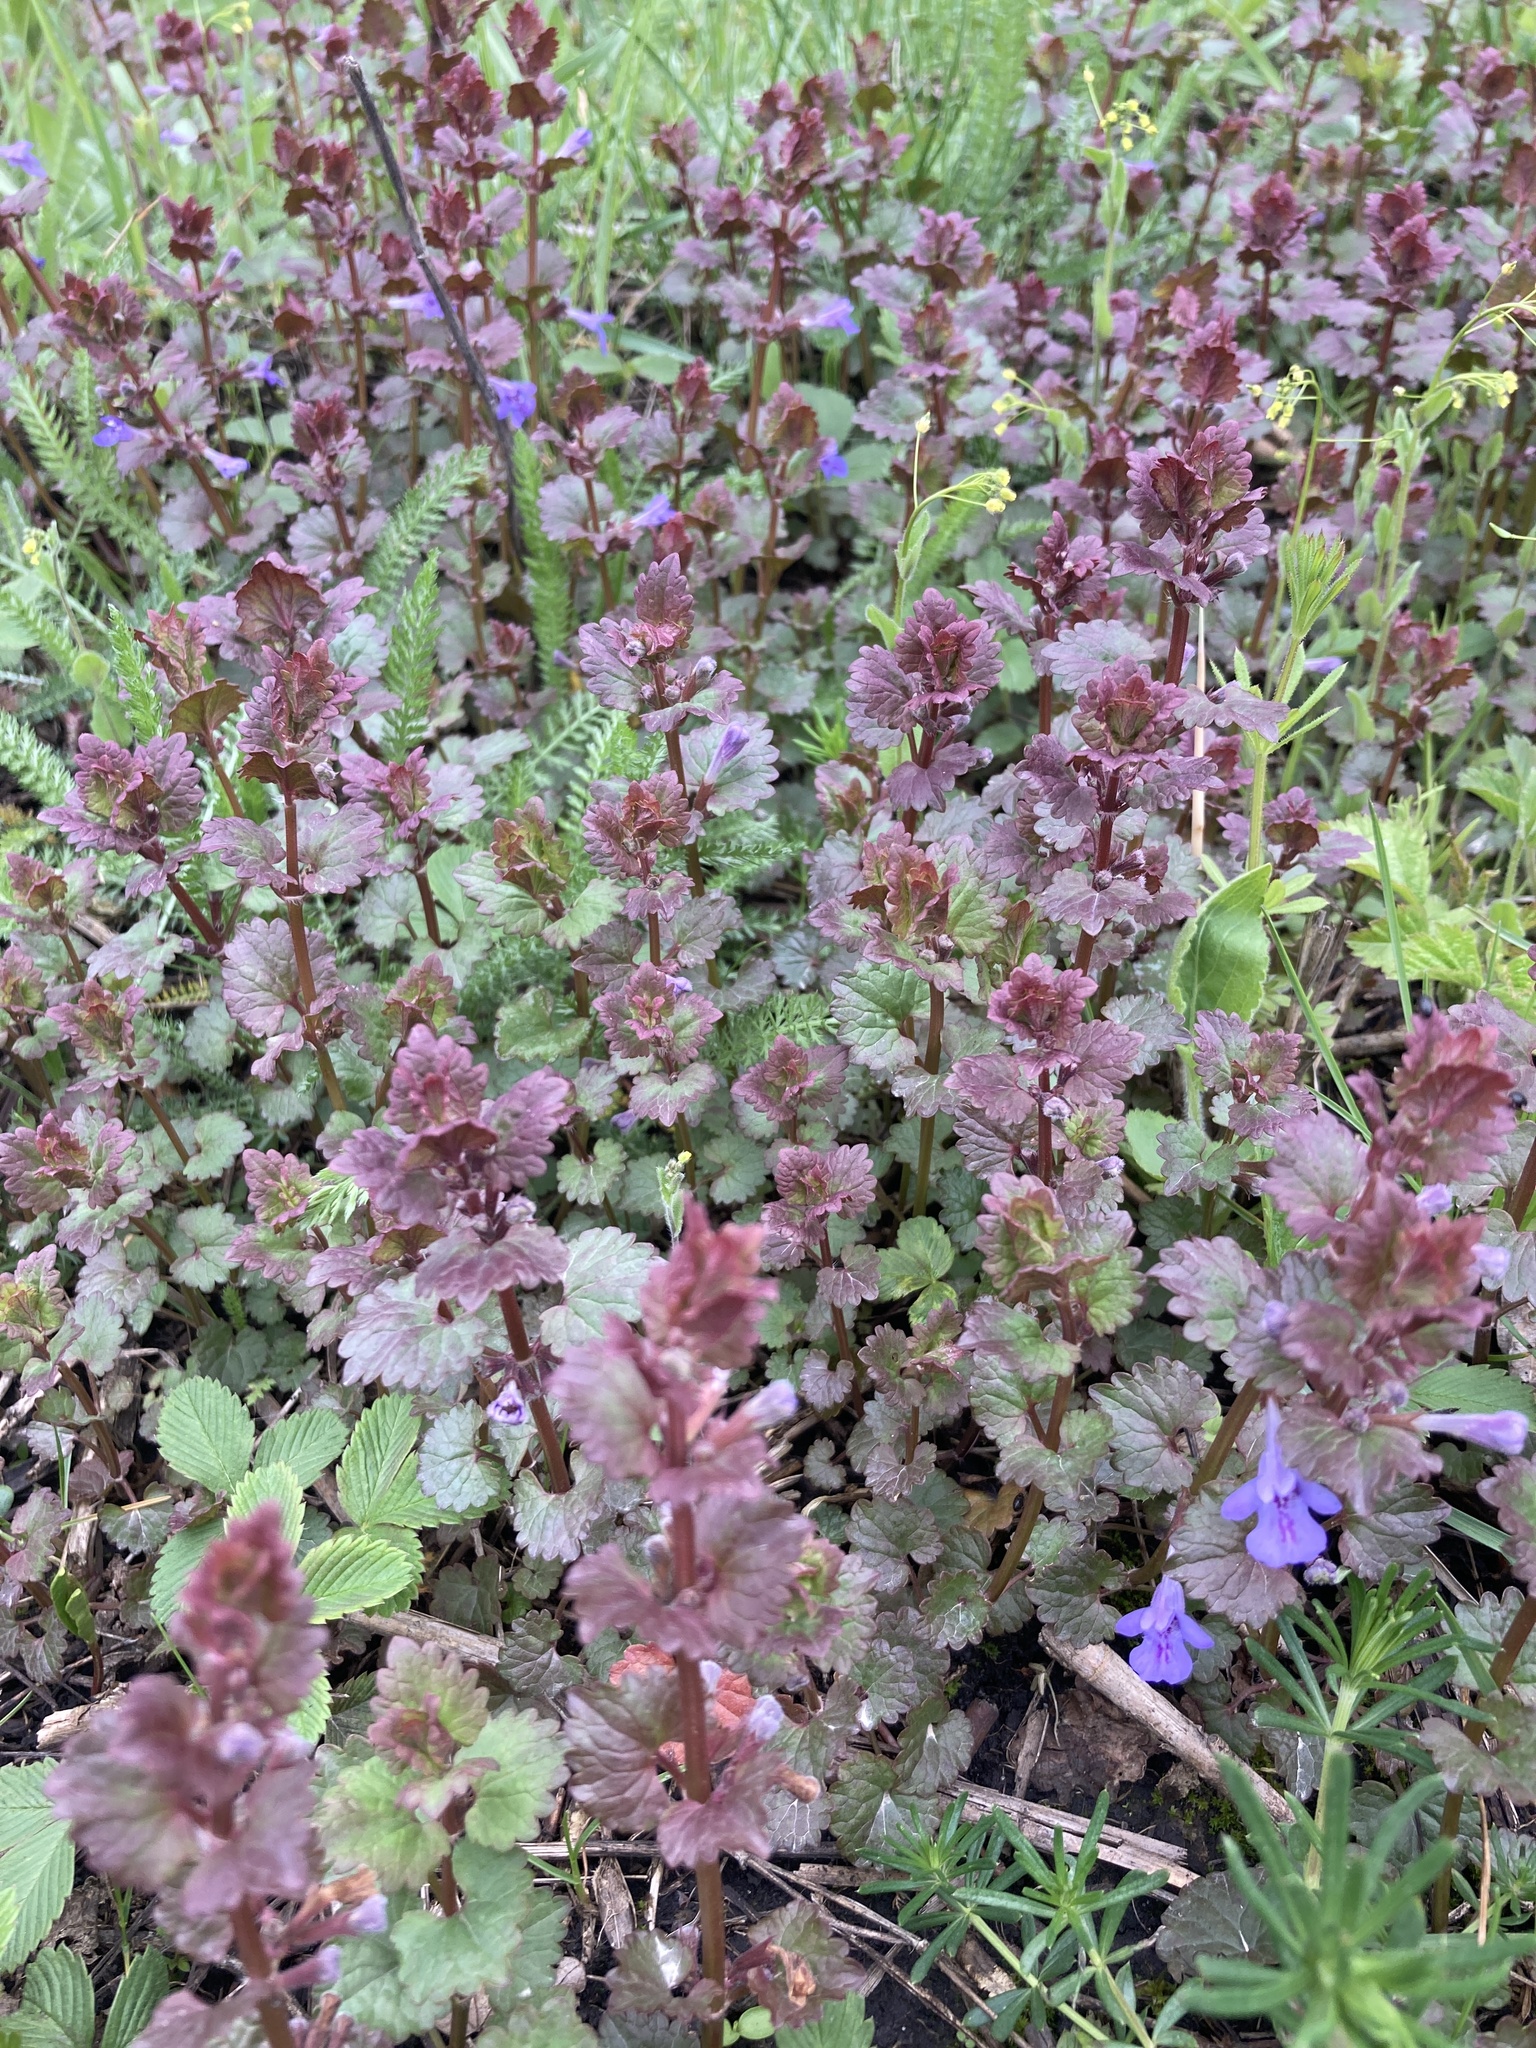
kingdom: Plantae
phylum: Tracheophyta
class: Magnoliopsida
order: Lamiales
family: Lamiaceae
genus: Glechoma
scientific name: Glechoma hederacea
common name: Ground ivy
